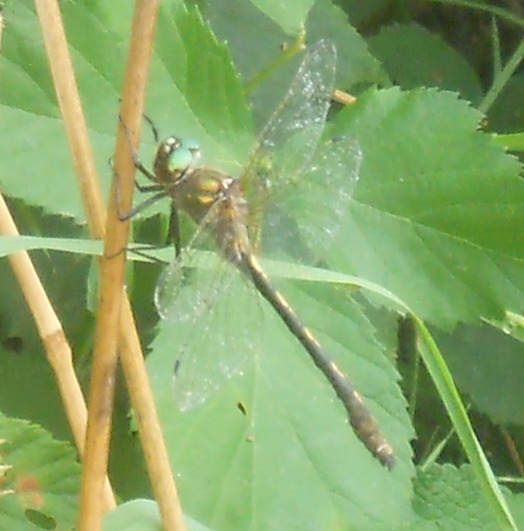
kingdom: Animalia
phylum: Arthropoda
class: Insecta
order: Odonata
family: Corduliidae
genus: Oxygastra
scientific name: Oxygastra curtisii
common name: Orange-spotted emerald
